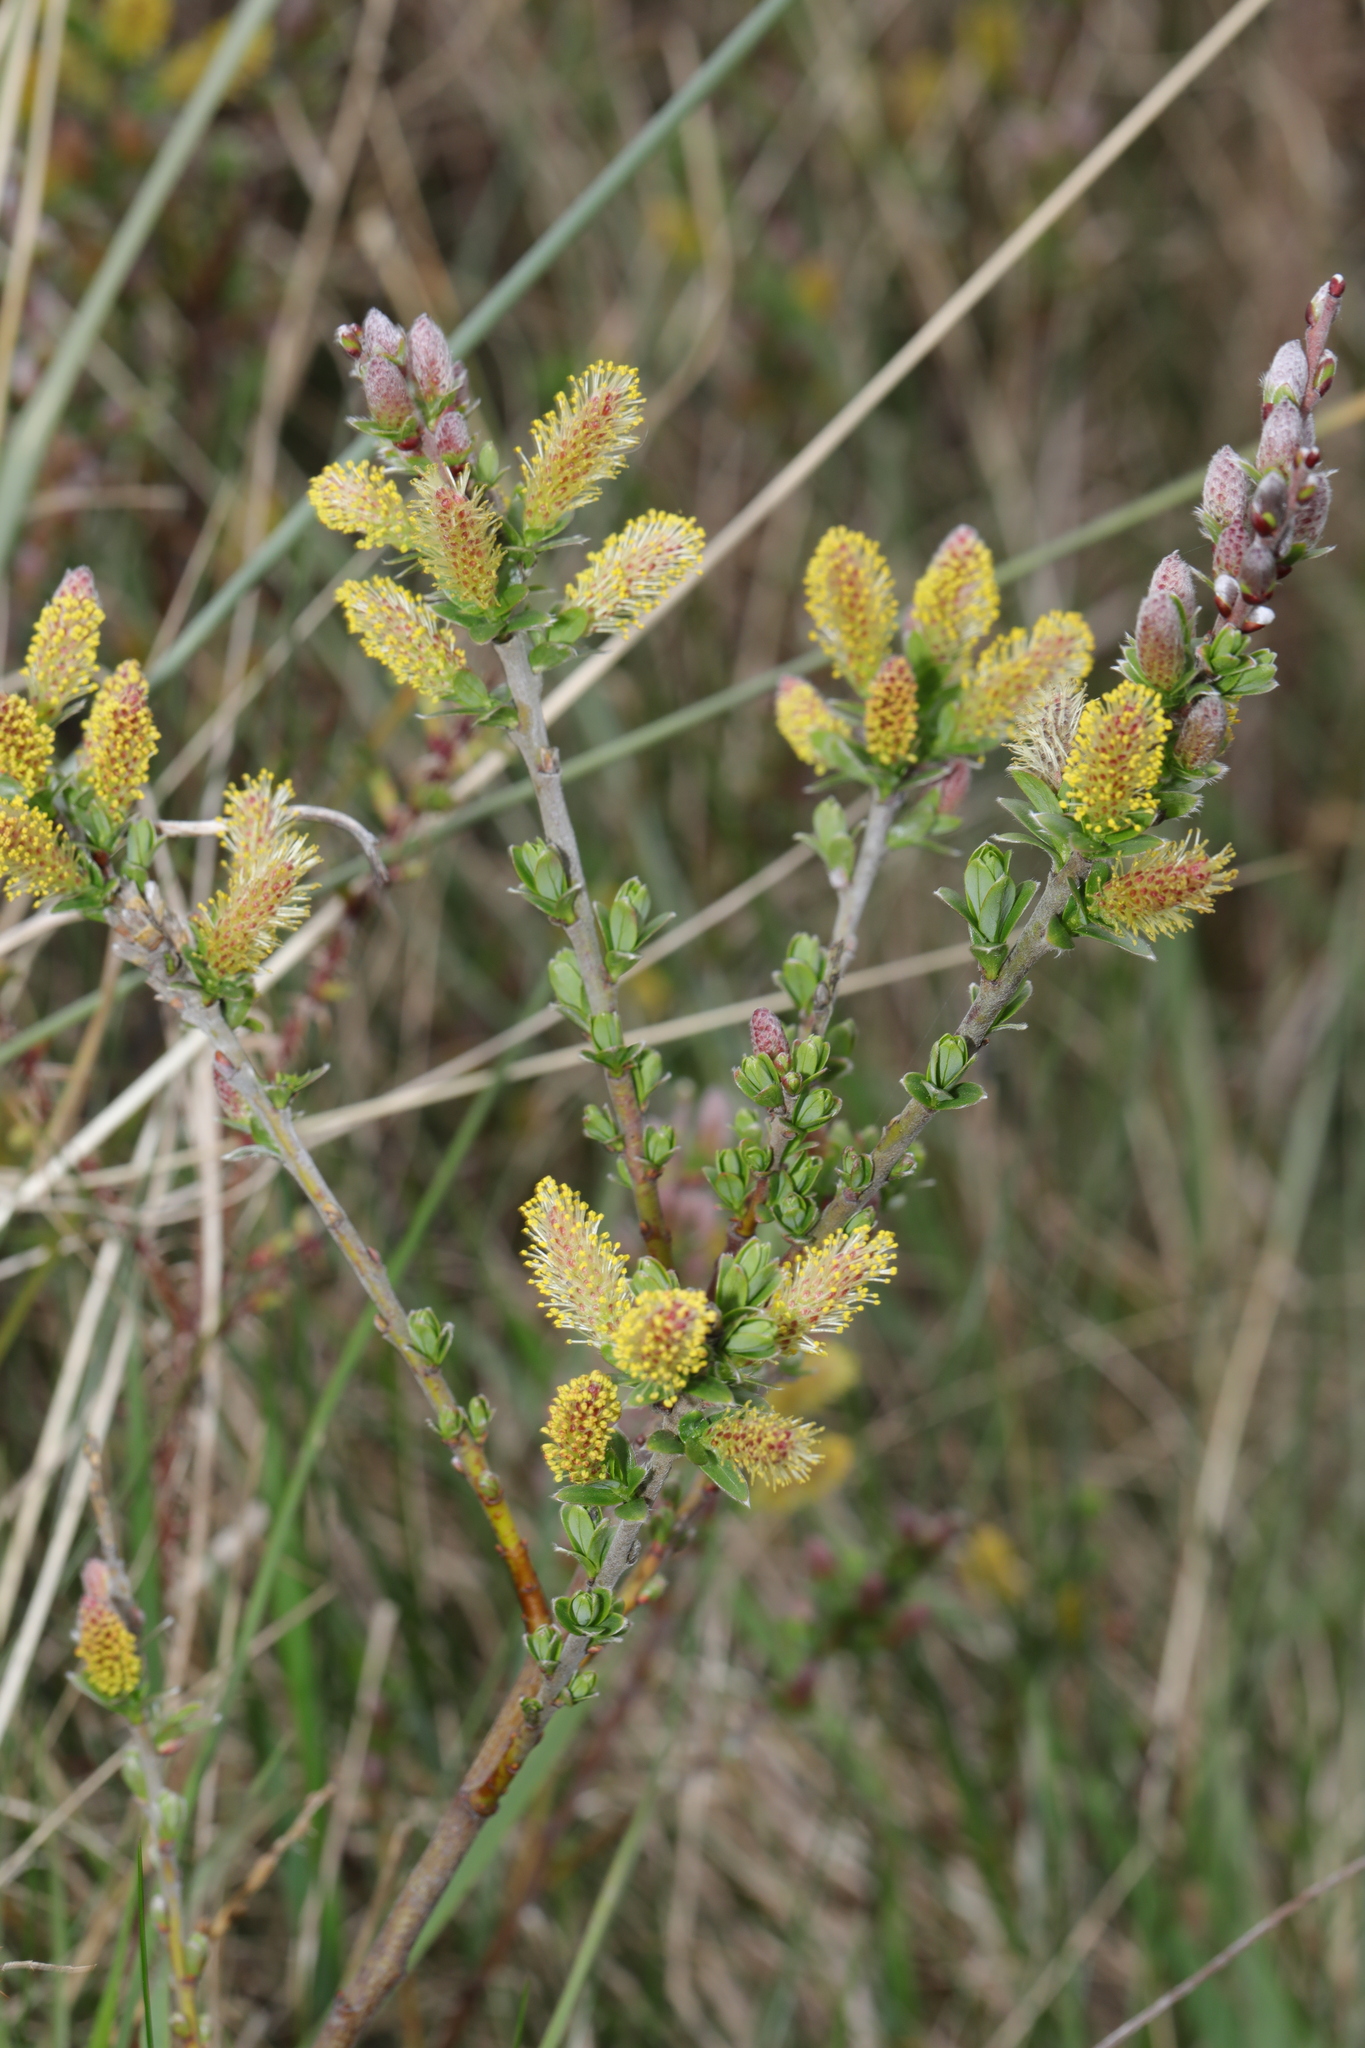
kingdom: Plantae
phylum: Tracheophyta
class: Magnoliopsida
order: Malpighiales
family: Salicaceae
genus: Salix
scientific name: Salix repens
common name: Creeping willow
